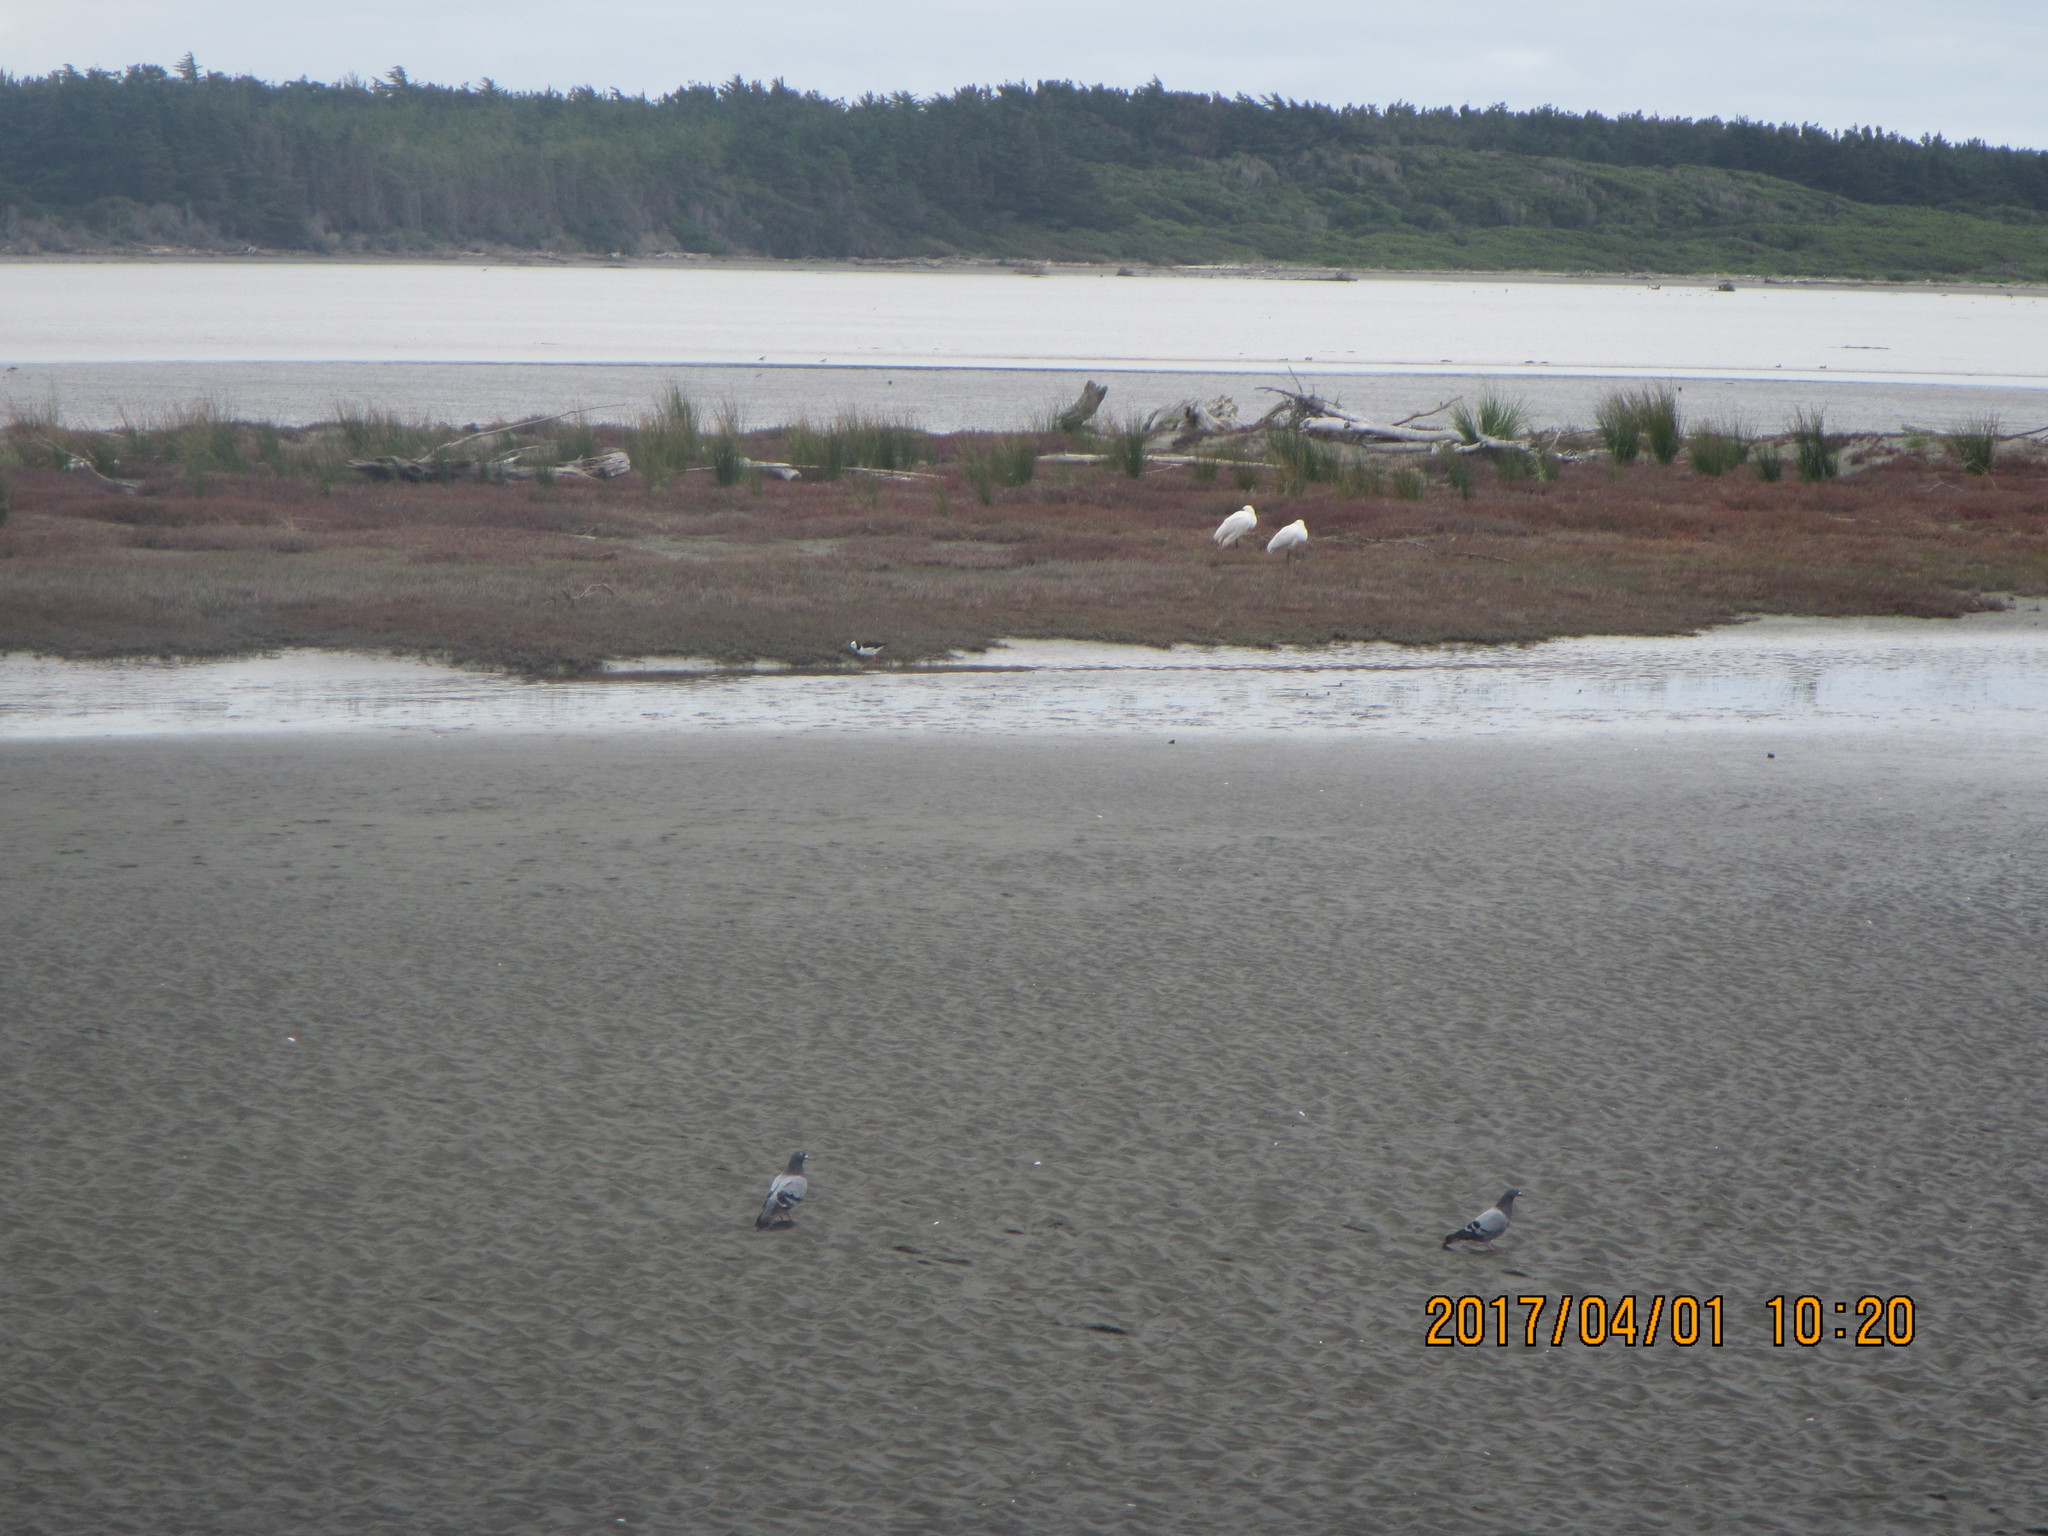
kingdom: Animalia
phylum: Chordata
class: Aves
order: Columbiformes
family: Columbidae
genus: Columba
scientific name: Columba livia
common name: Rock pigeon
